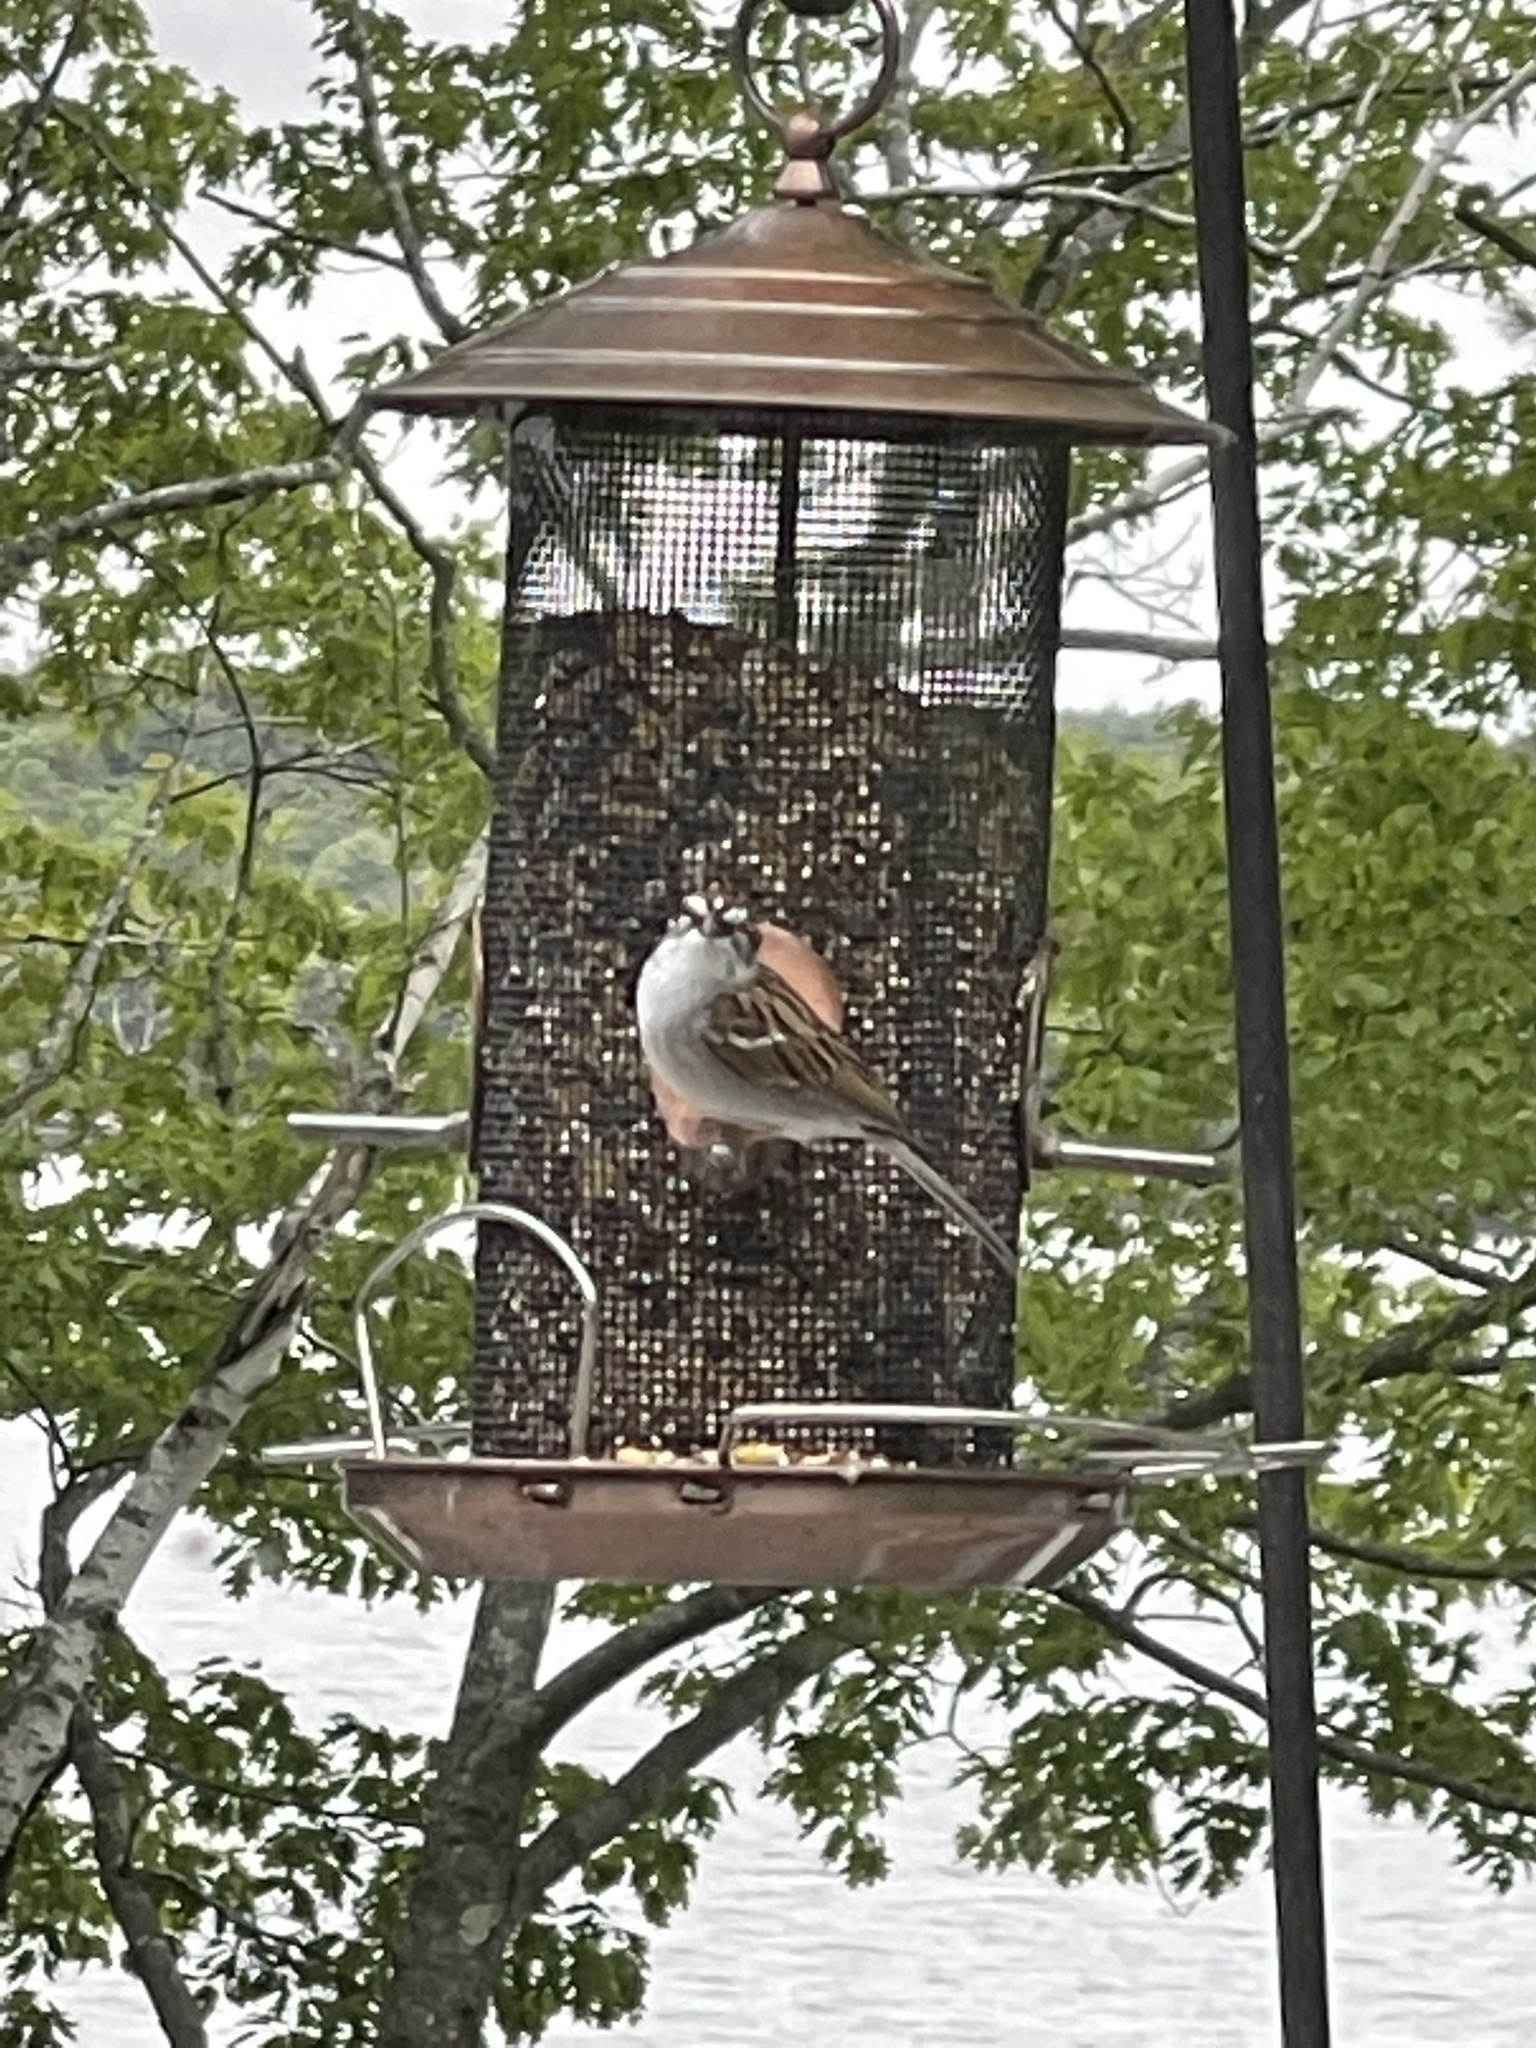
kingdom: Animalia
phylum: Chordata
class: Aves
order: Passeriformes
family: Passerellidae
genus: Spizella
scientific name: Spizella passerina
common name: Chipping sparrow
